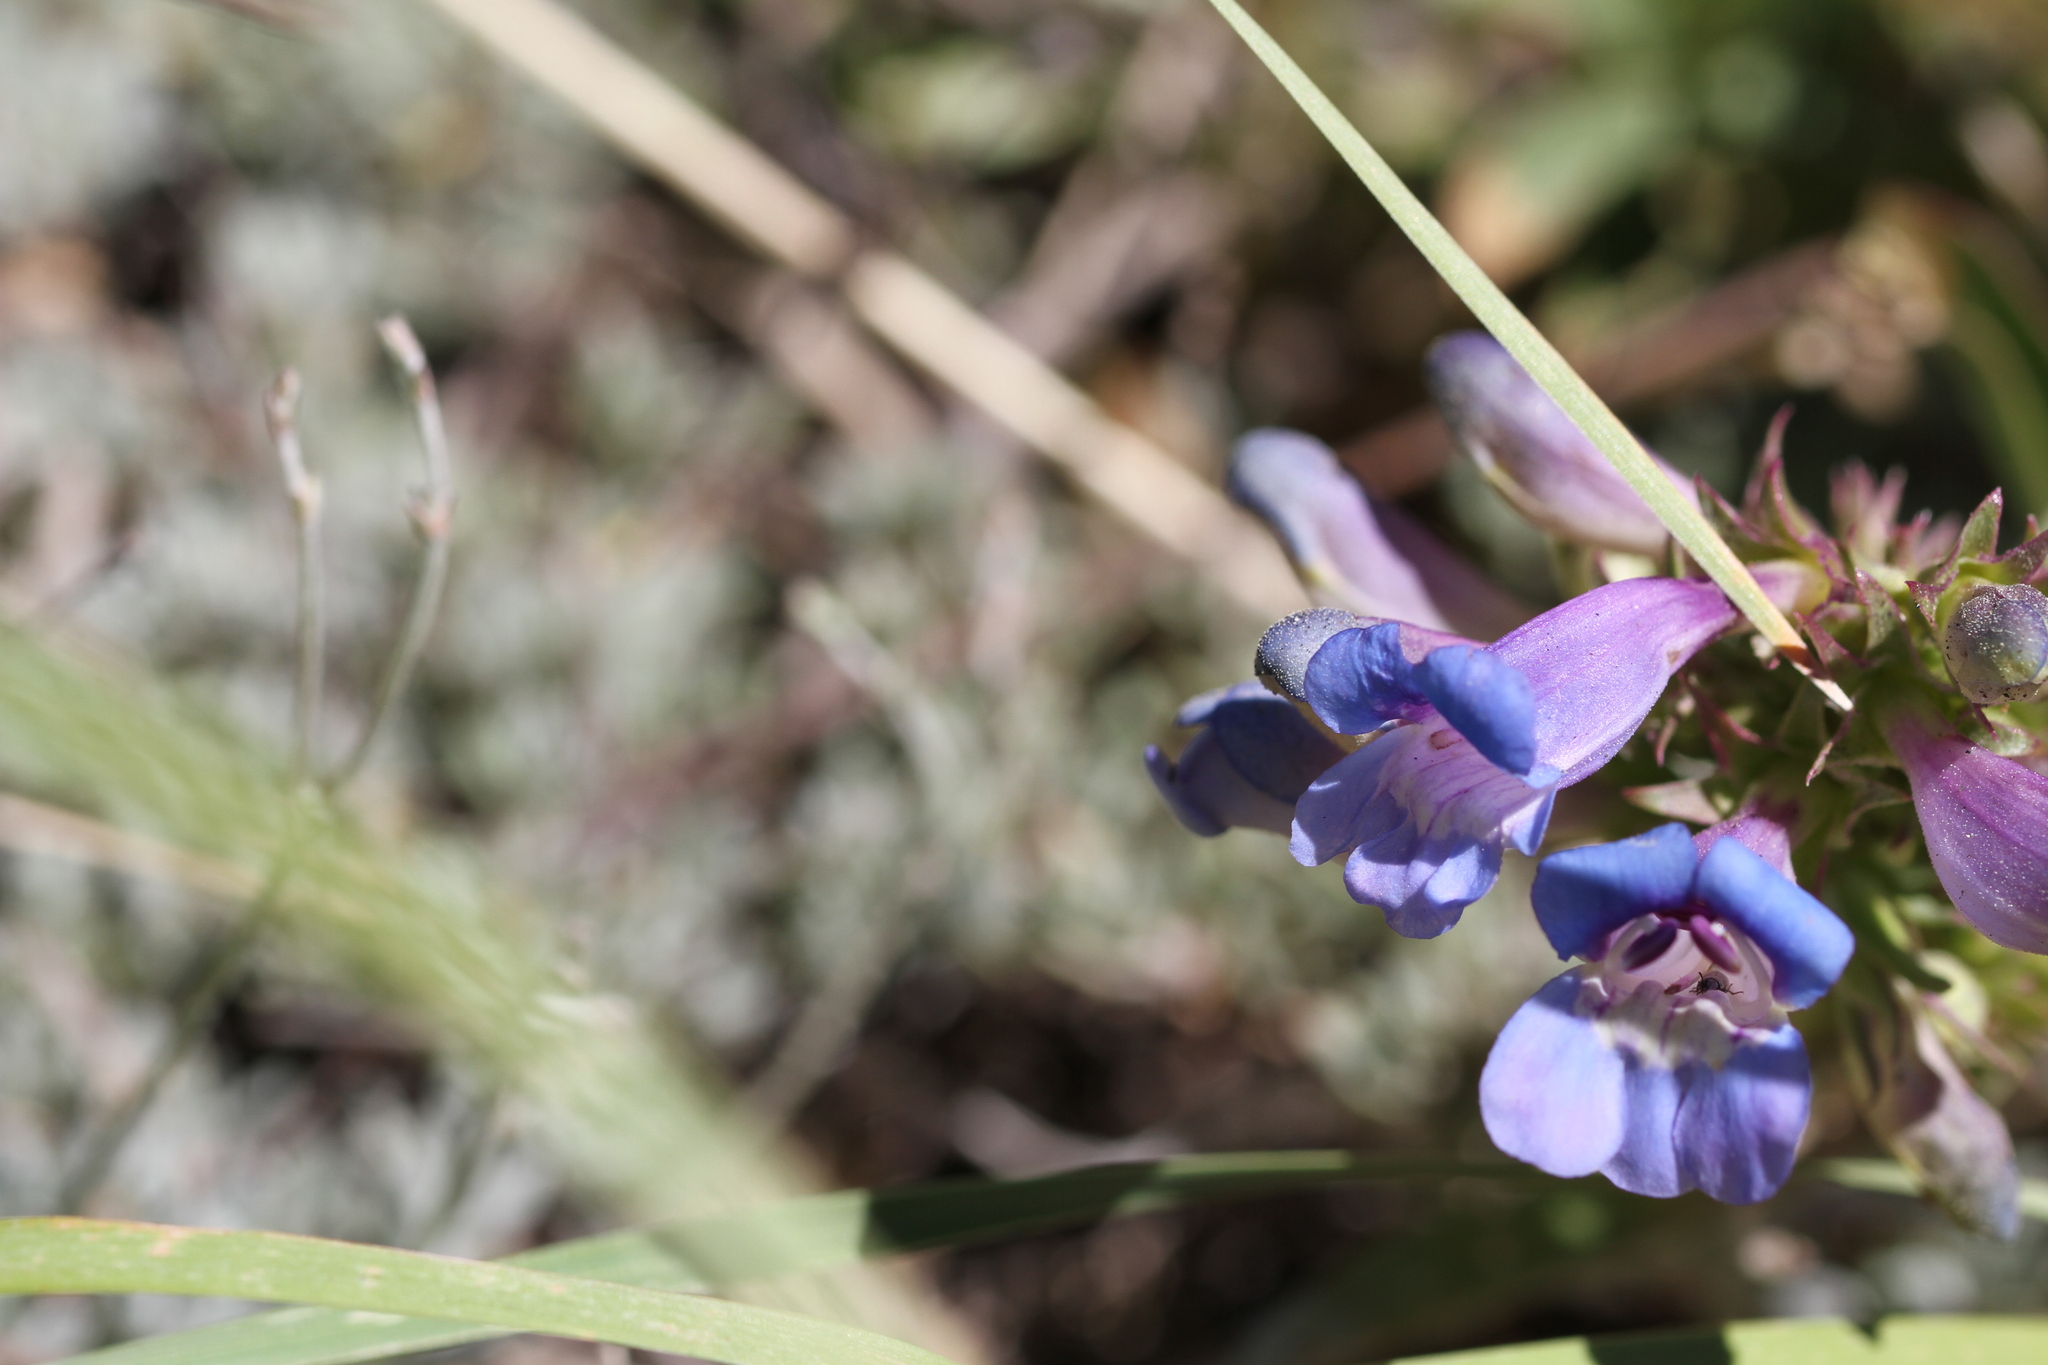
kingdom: Plantae
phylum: Tracheophyta
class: Magnoliopsida
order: Lamiales
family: Plantaginaceae
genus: Penstemon
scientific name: Penstemon speciosus
